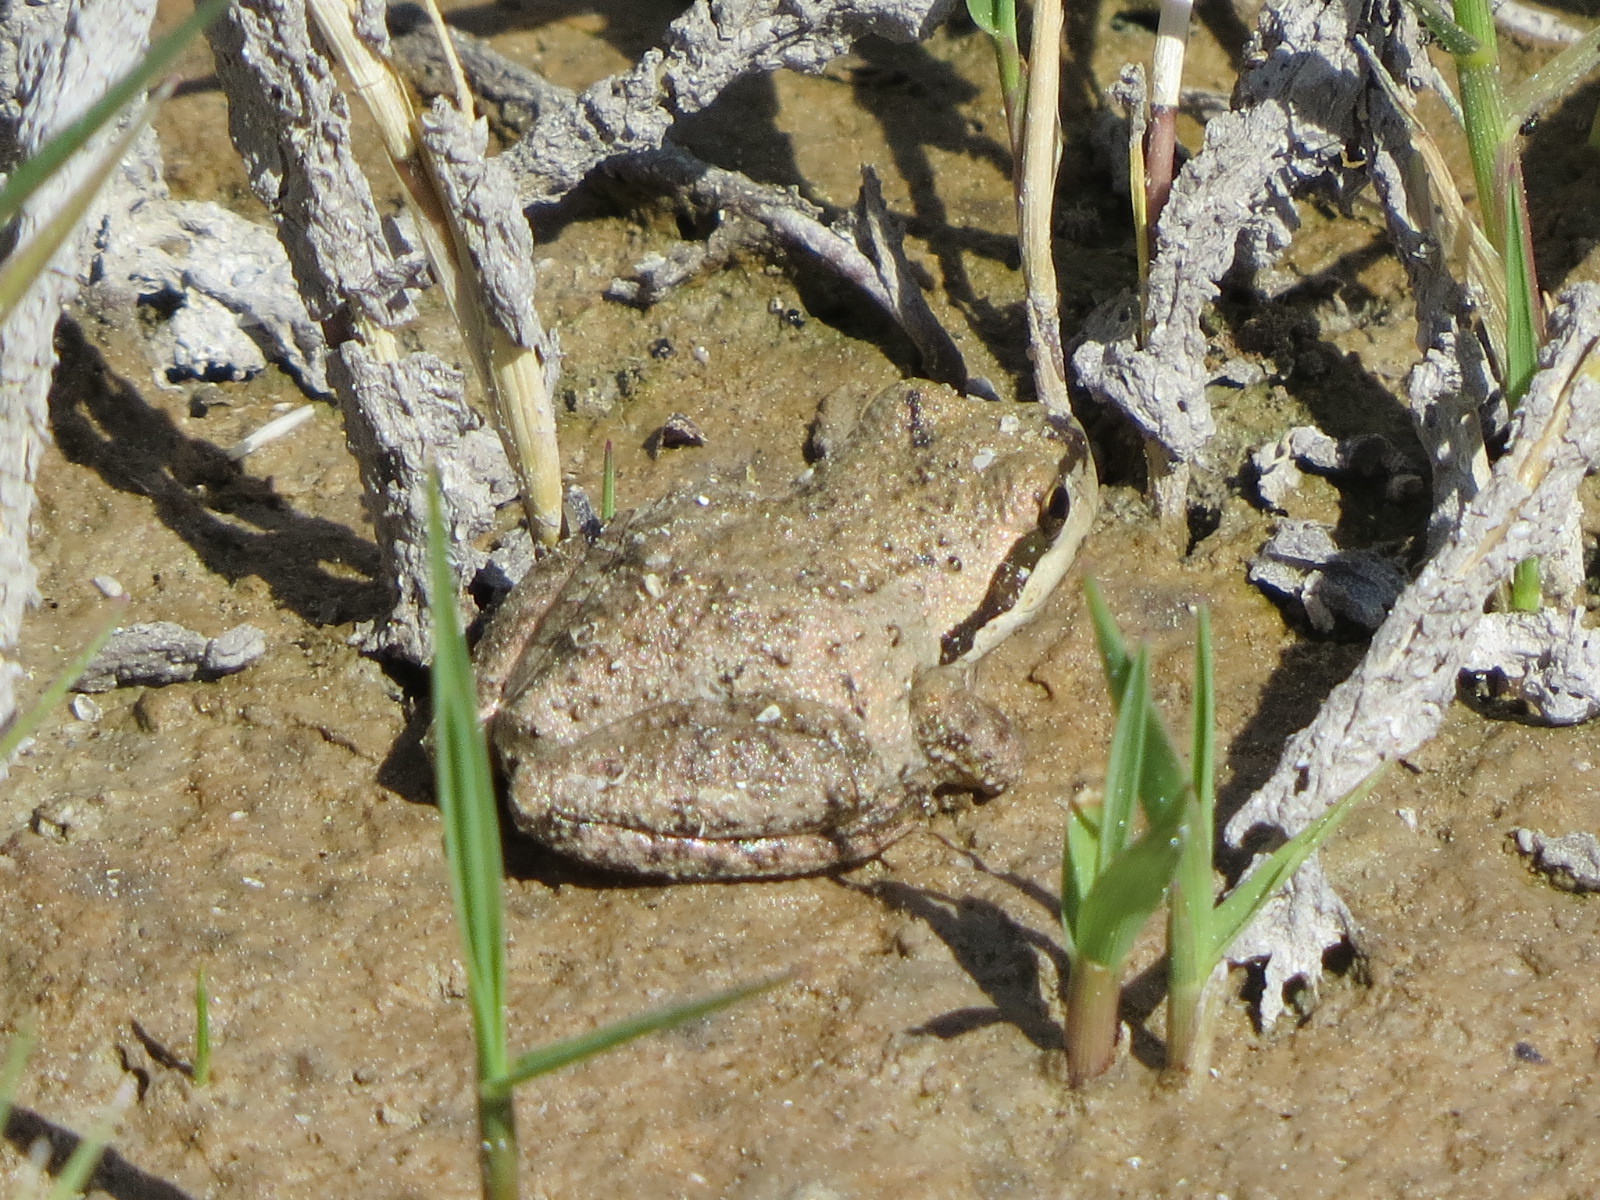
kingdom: Animalia
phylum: Chordata
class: Amphibia
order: Anura
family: Hylidae
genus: Pseudacris
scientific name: Pseudacris regilla
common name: Pacific chorus frog
